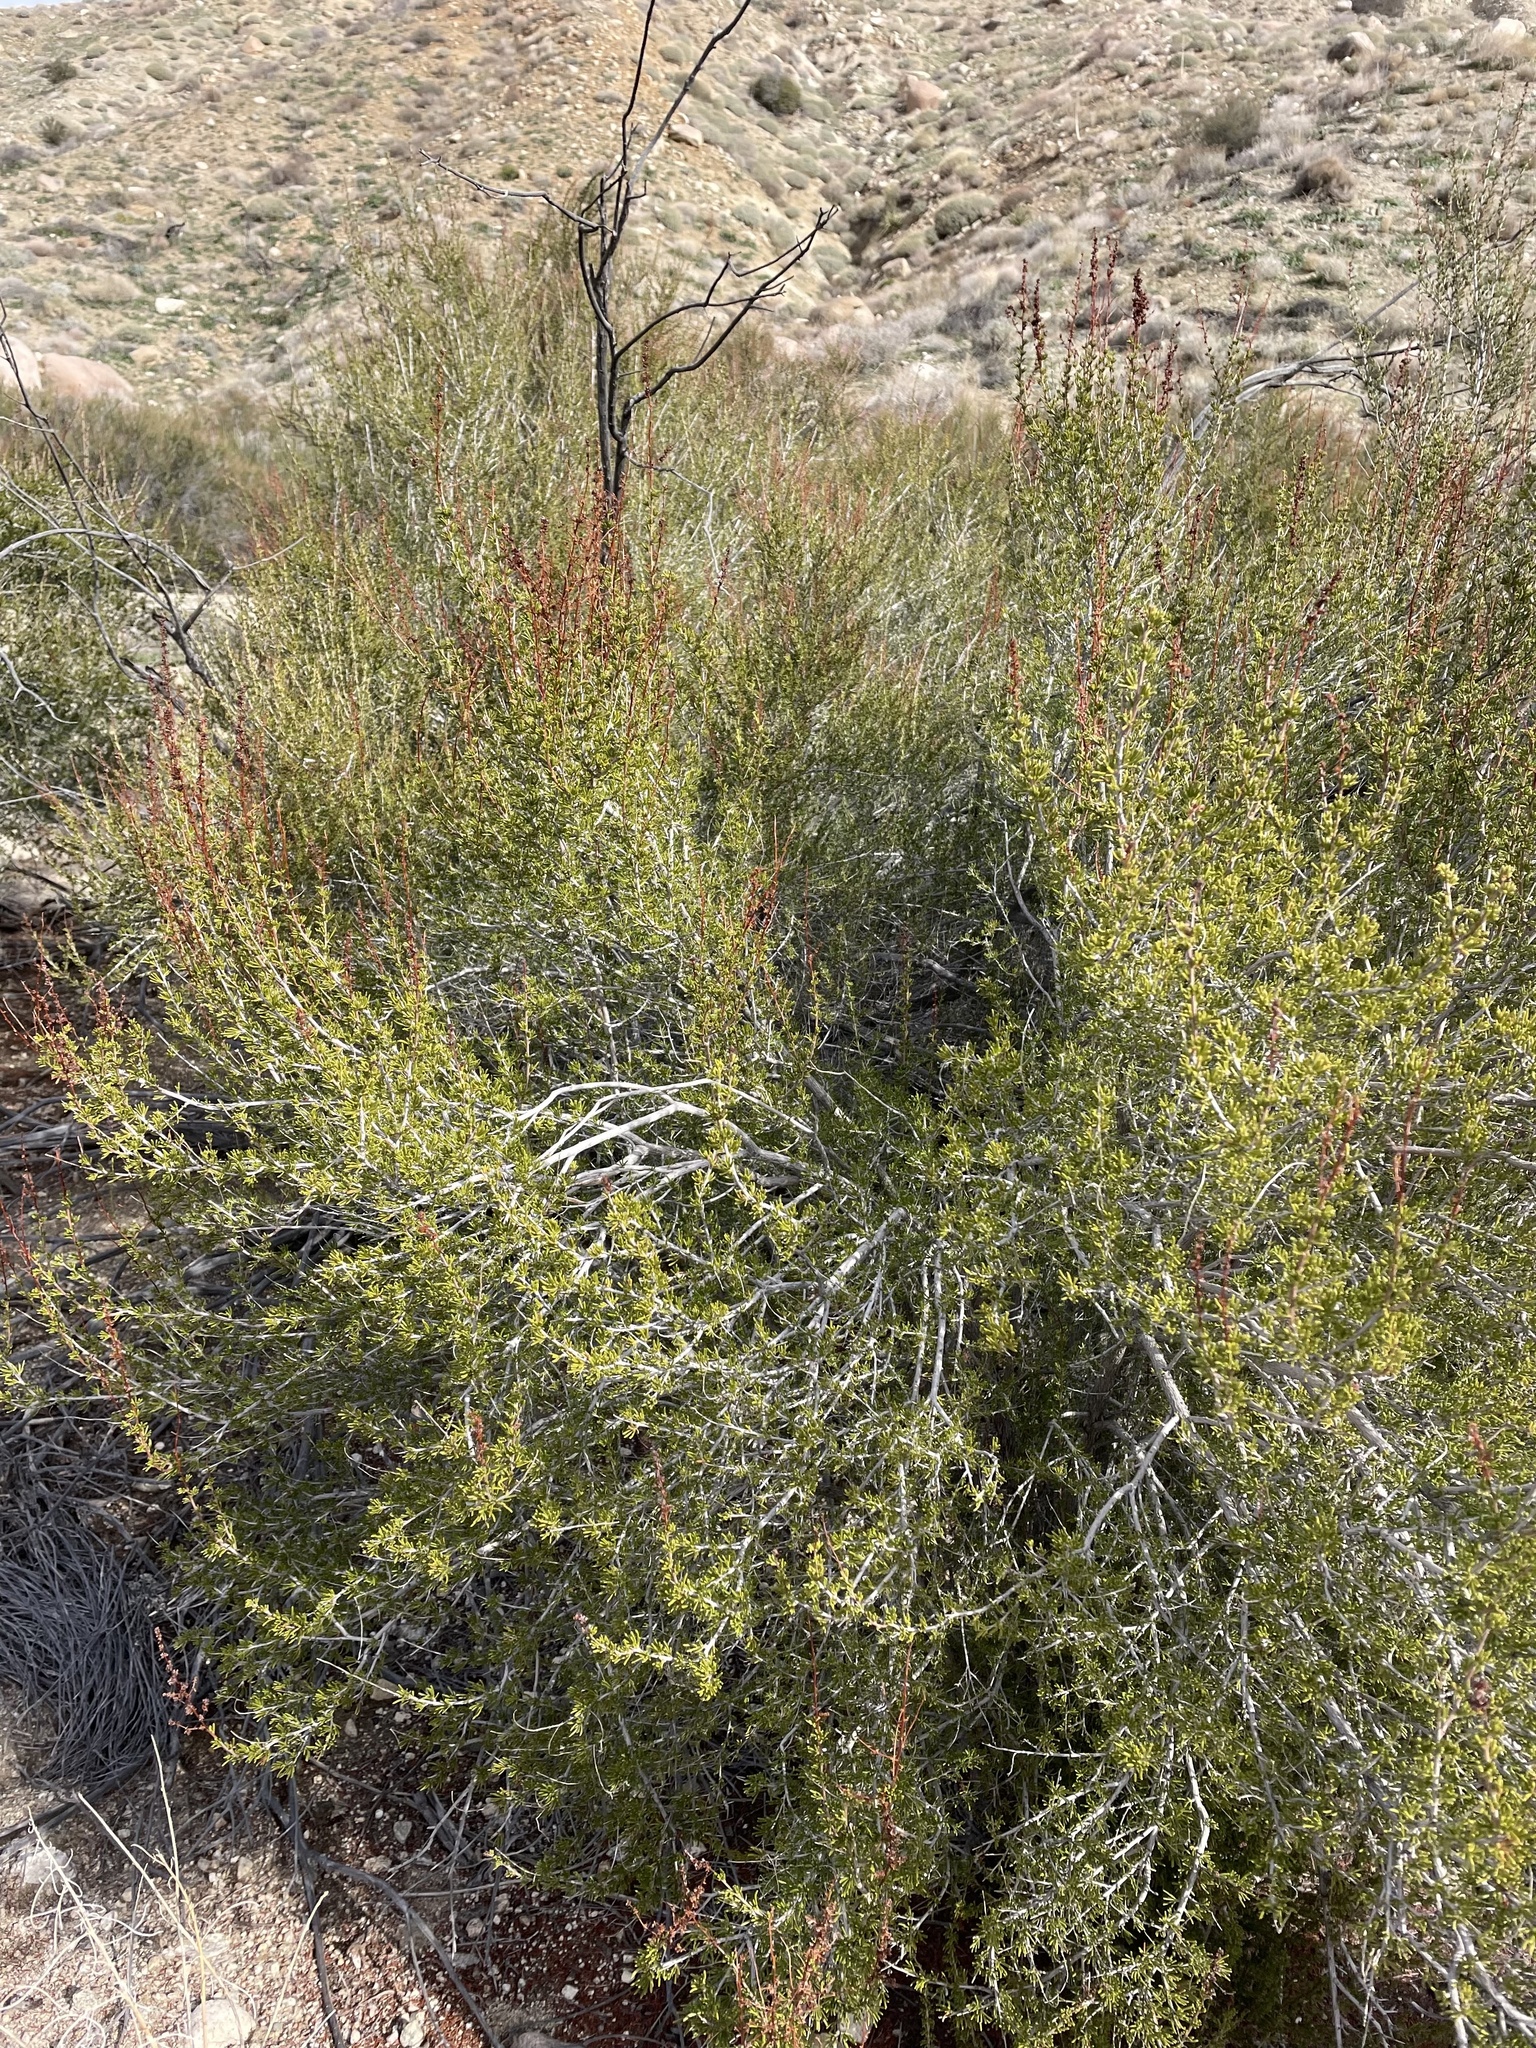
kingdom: Plantae
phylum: Tracheophyta
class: Magnoliopsida
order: Rosales
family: Rosaceae
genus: Adenostoma
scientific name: Adenostoma fasciculatum
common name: Chamise
